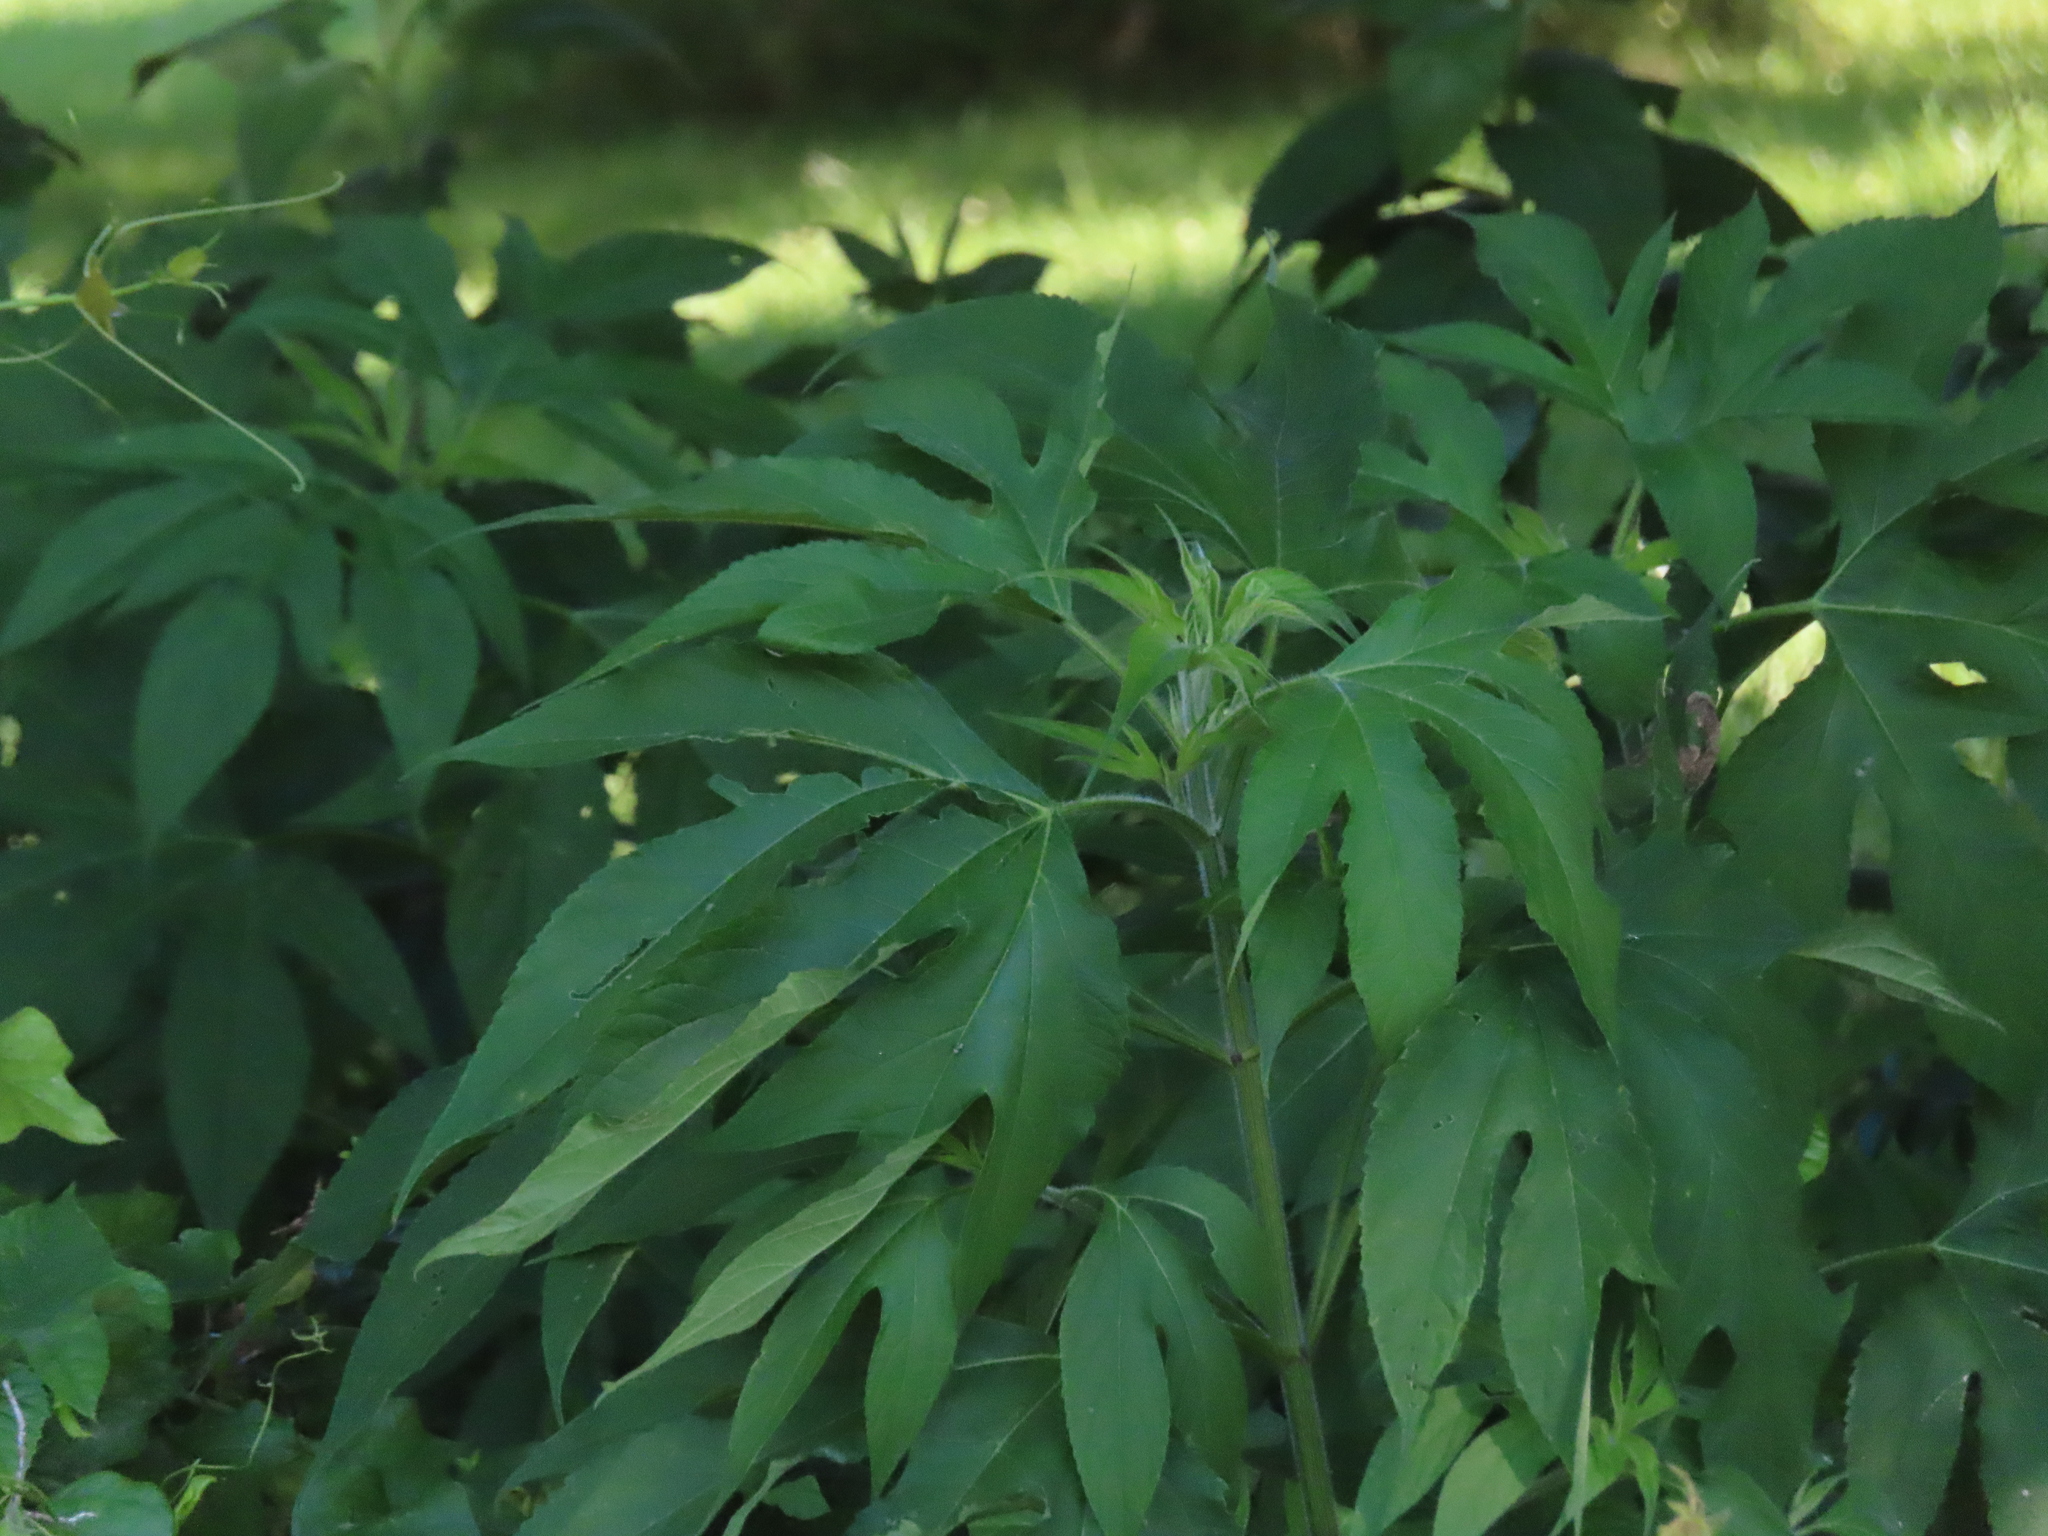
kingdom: Plantae
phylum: Tracheophyta
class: Magnoliopsida
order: Asterales
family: Asteraceae
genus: Ambrosia
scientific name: Ambrosia trifida
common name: Giant ragweed
